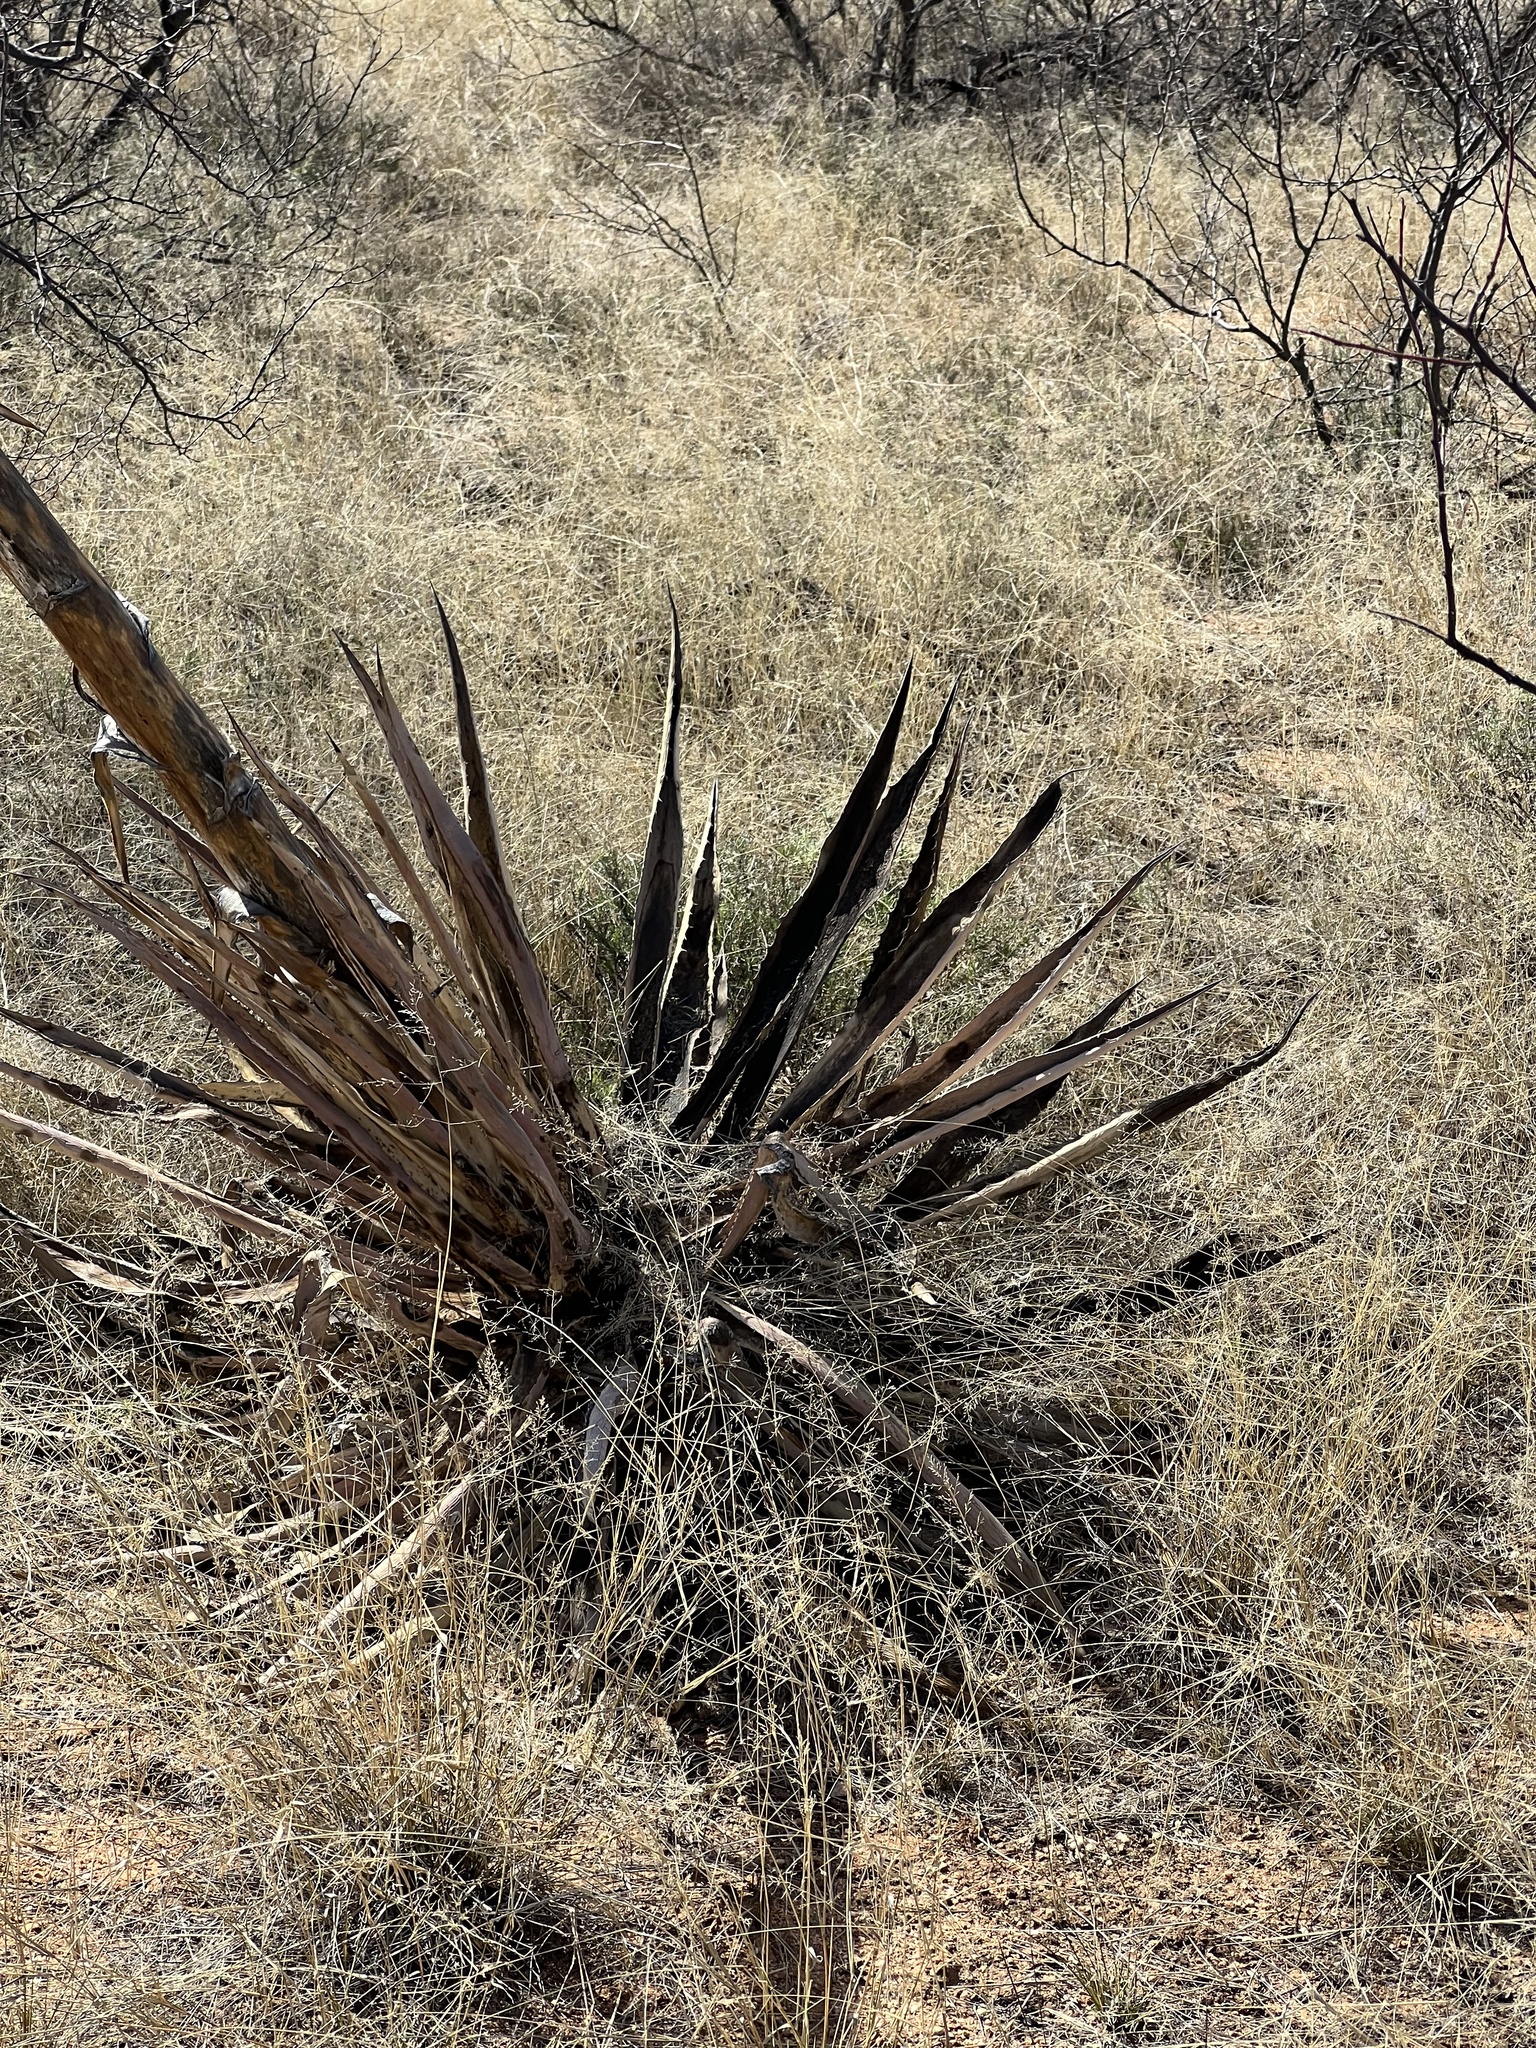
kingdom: Plantae
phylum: Tracheophyta
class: Liliopsida
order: Asparagales
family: Asparagaceae
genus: Agave
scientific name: Agave palmeri
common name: Palmer agave
